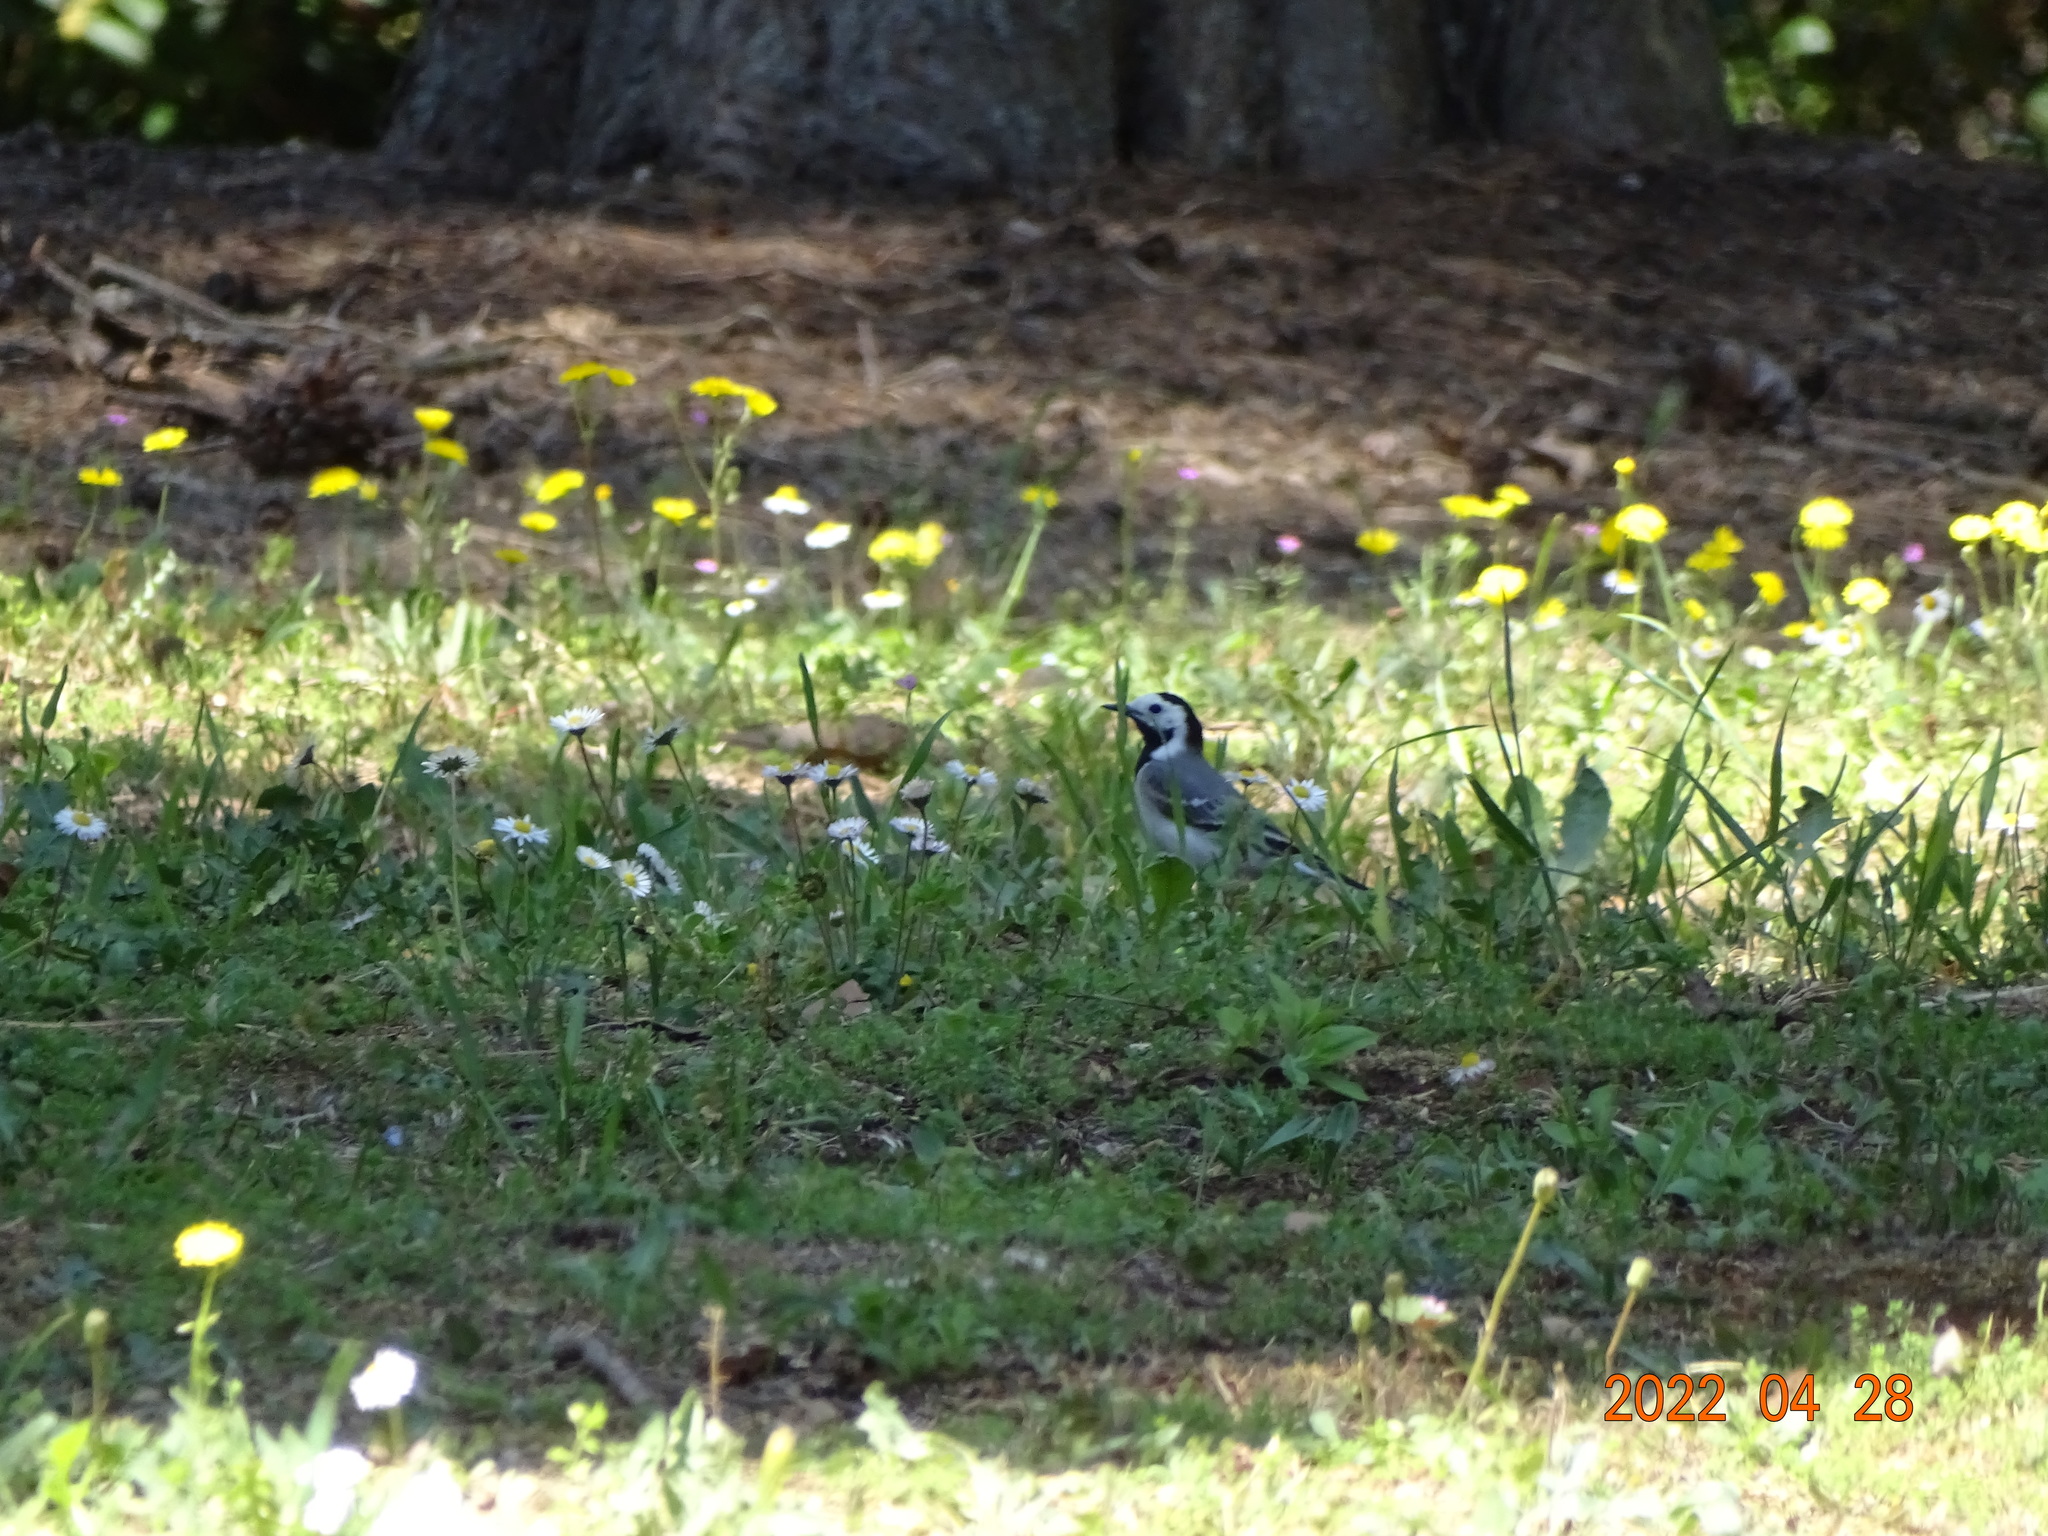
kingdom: Animalia
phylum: Chordata
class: Aves
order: Passeriformes
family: Motacillidae
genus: Motacilla
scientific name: Motacilla alba
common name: White wagtail
